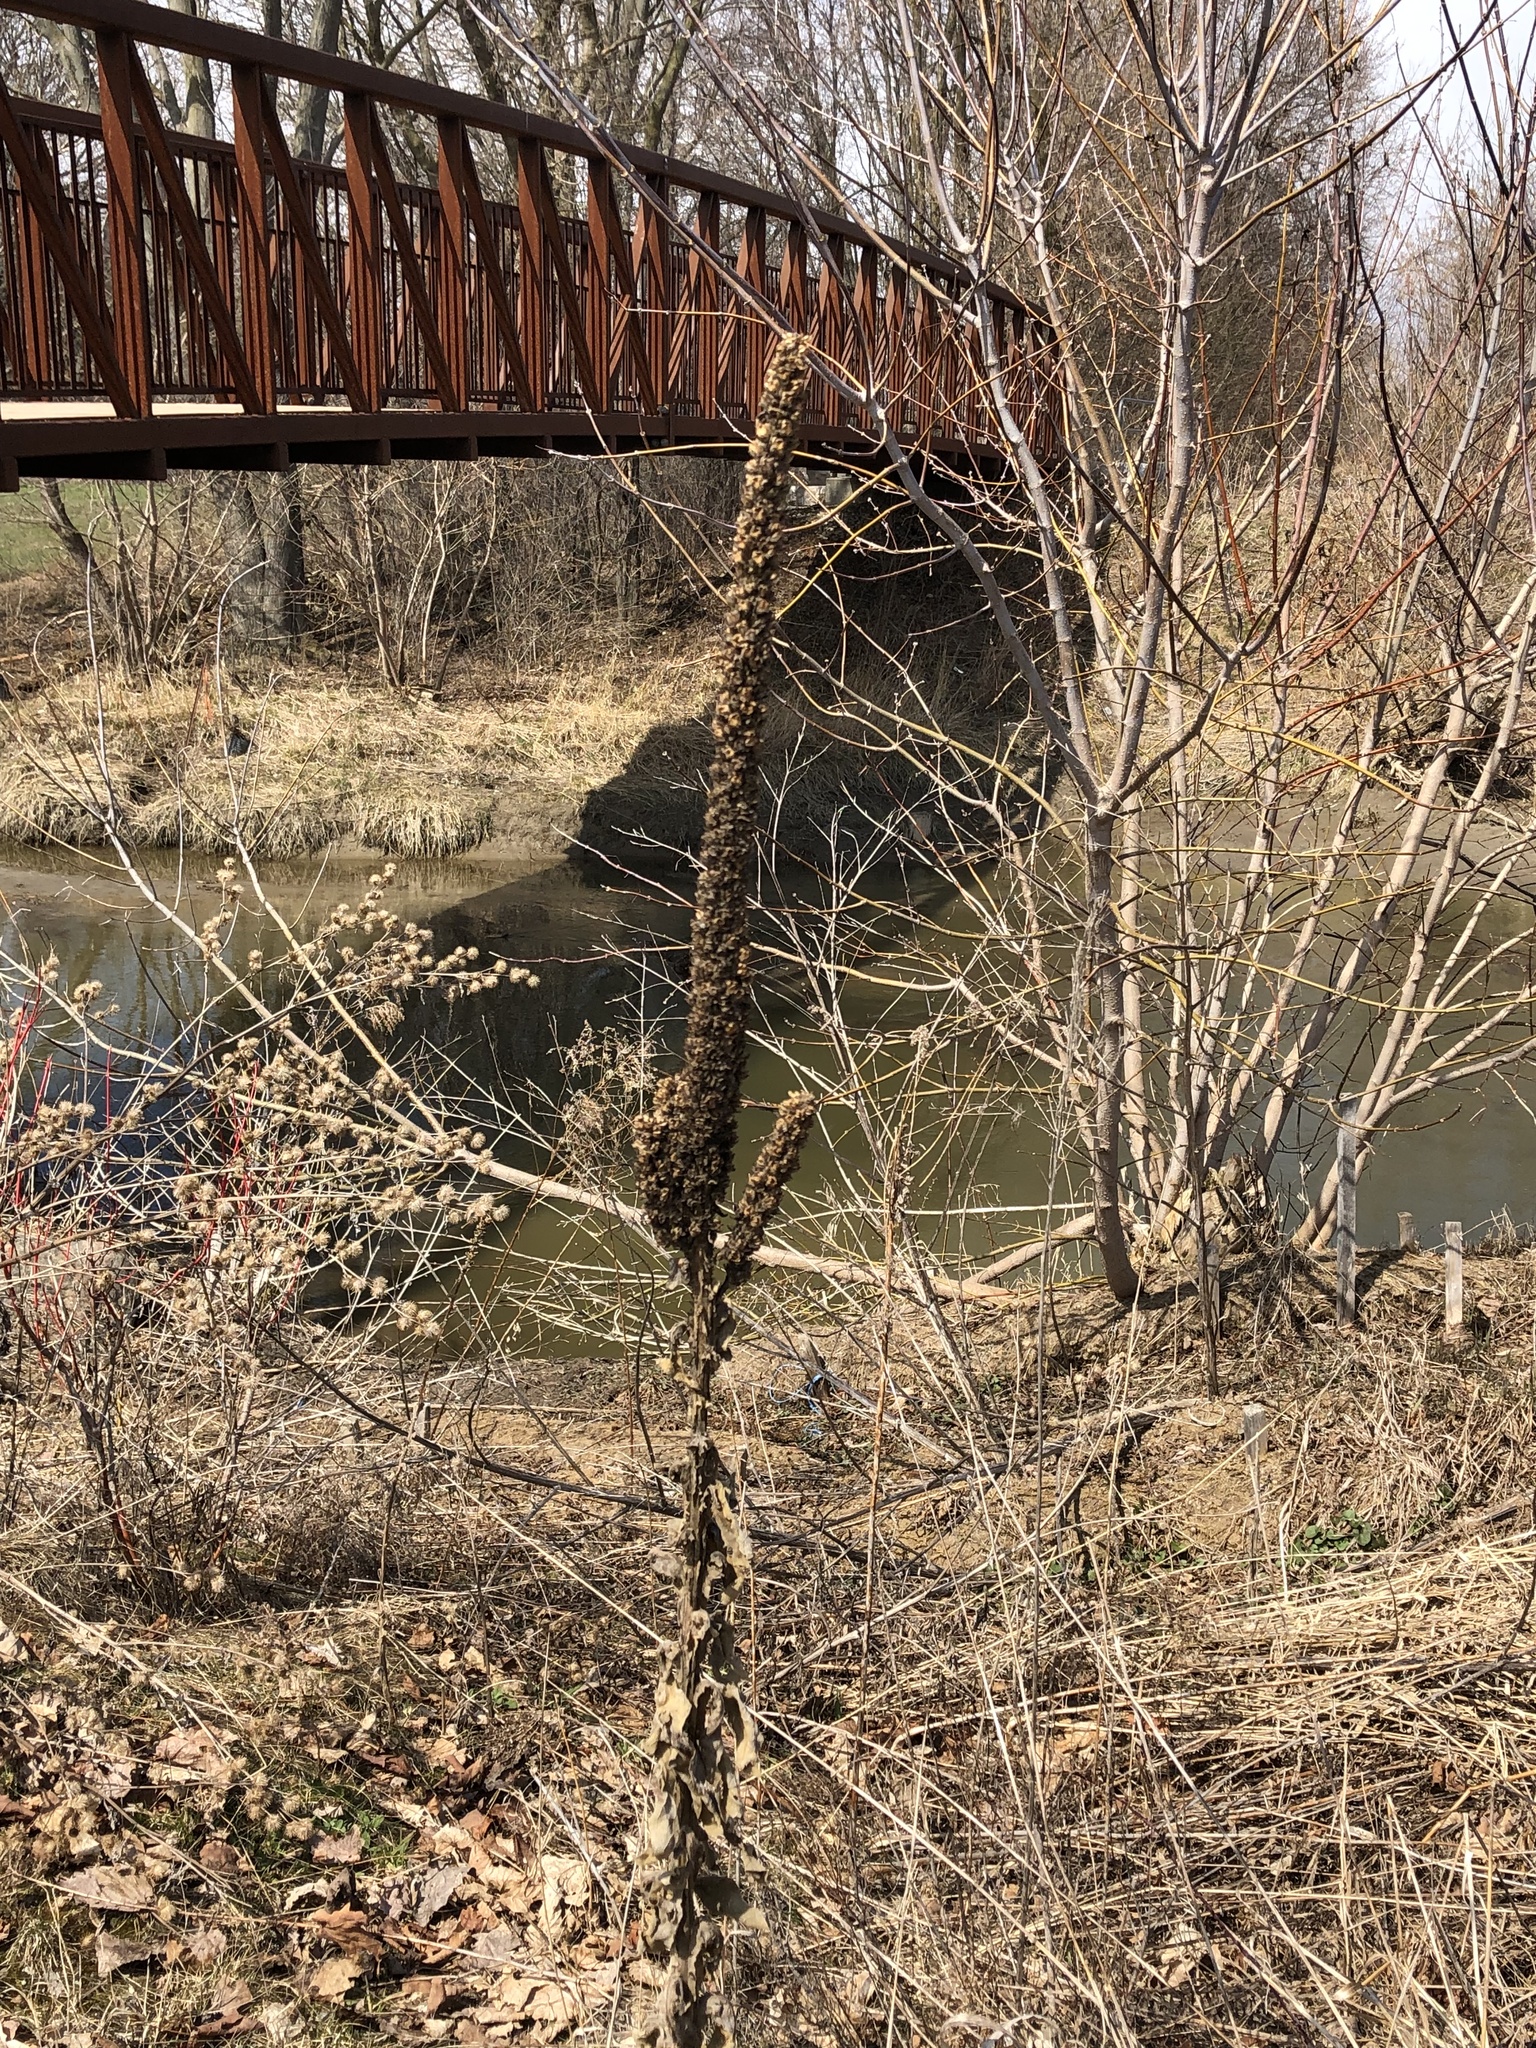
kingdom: Plantae
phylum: Tracheophyta
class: Magnoliopsida
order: Lamiales
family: Scrophulariaceae
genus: Verbascum
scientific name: Verbascum thapsus
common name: Common mullein
